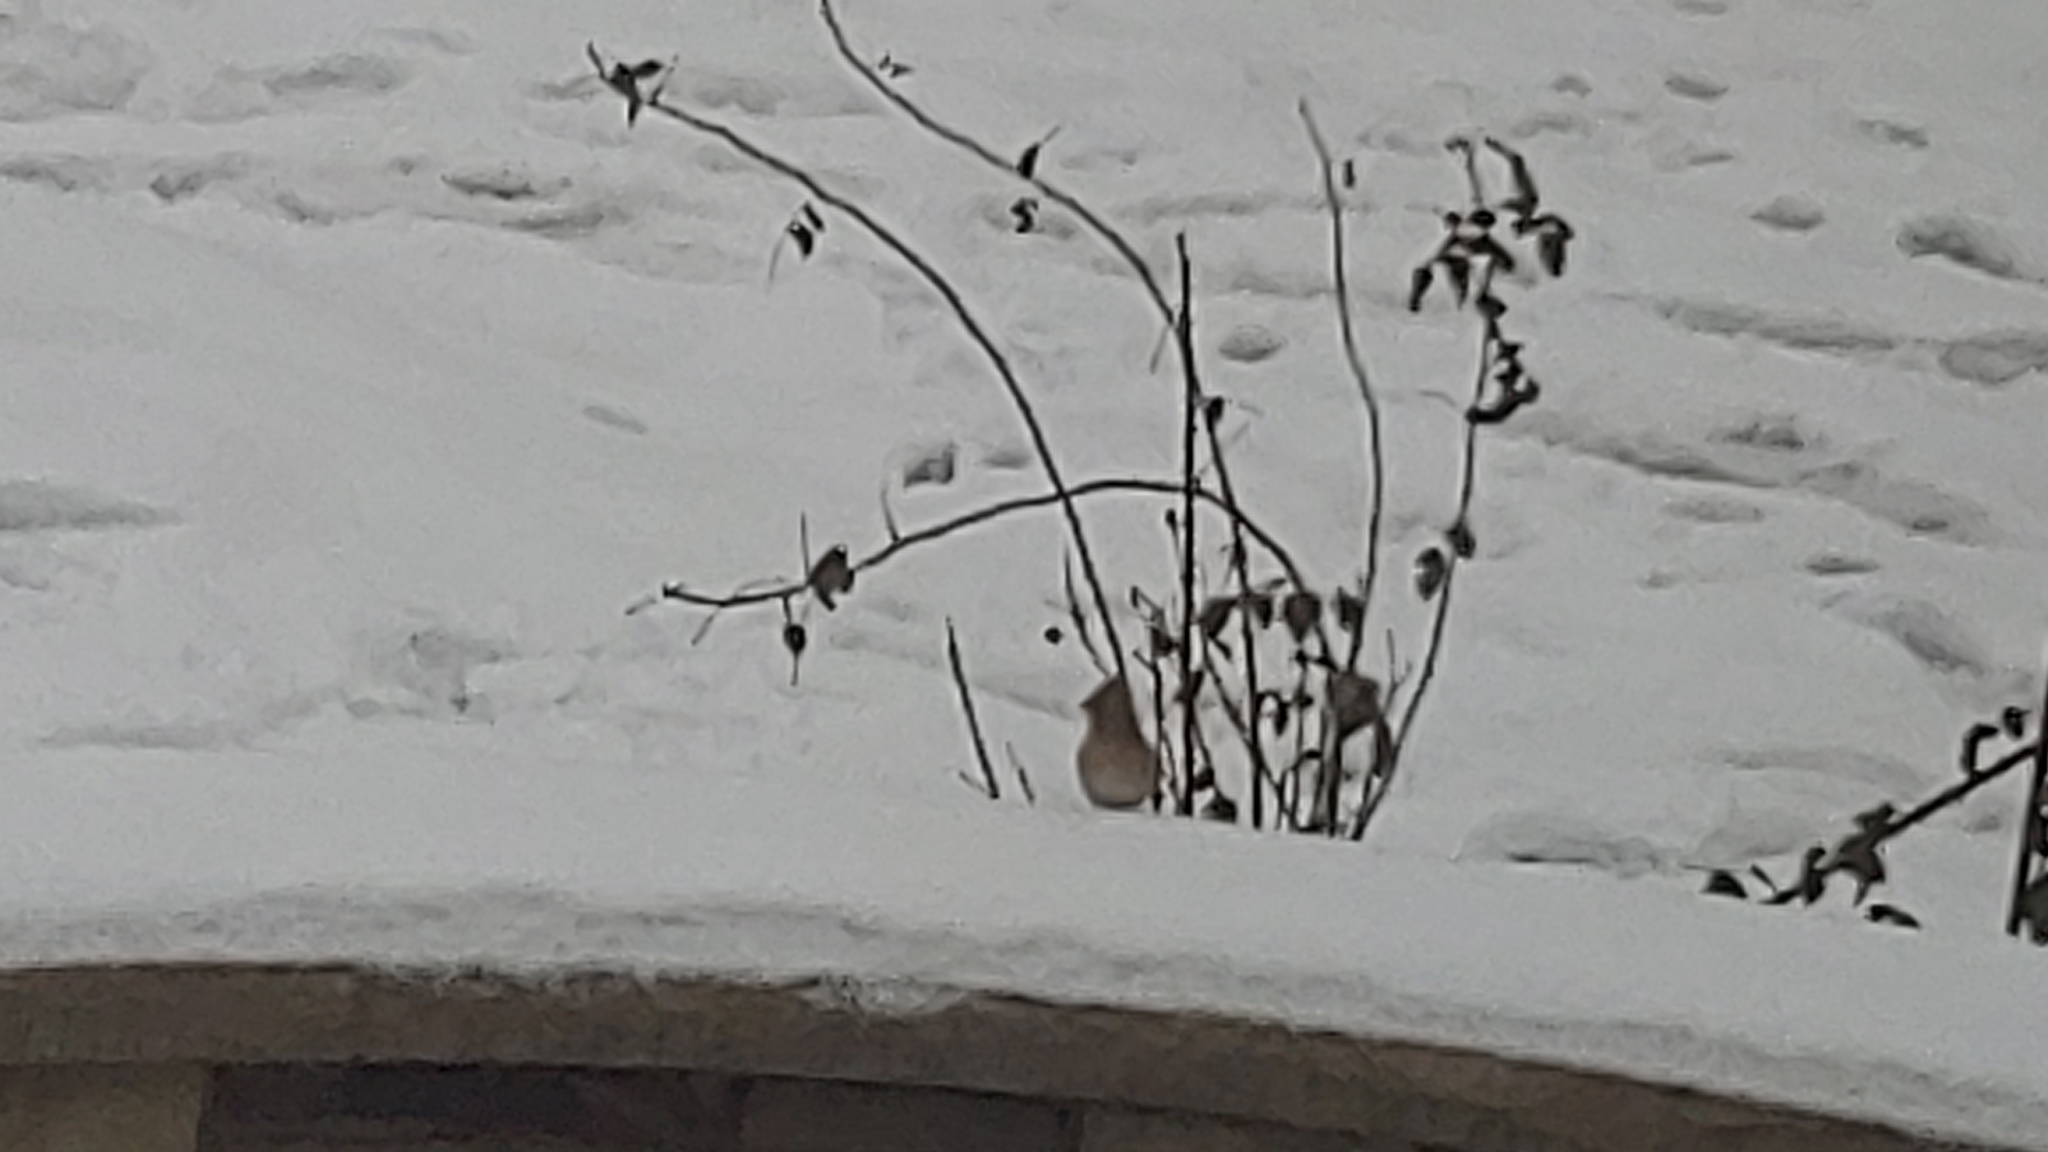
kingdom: Animalia
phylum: Chordata
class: Aves
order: Passeriformes
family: Cardinalidae
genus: Cardinalis
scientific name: Cardinalis cardinalis
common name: Northern cardinal
